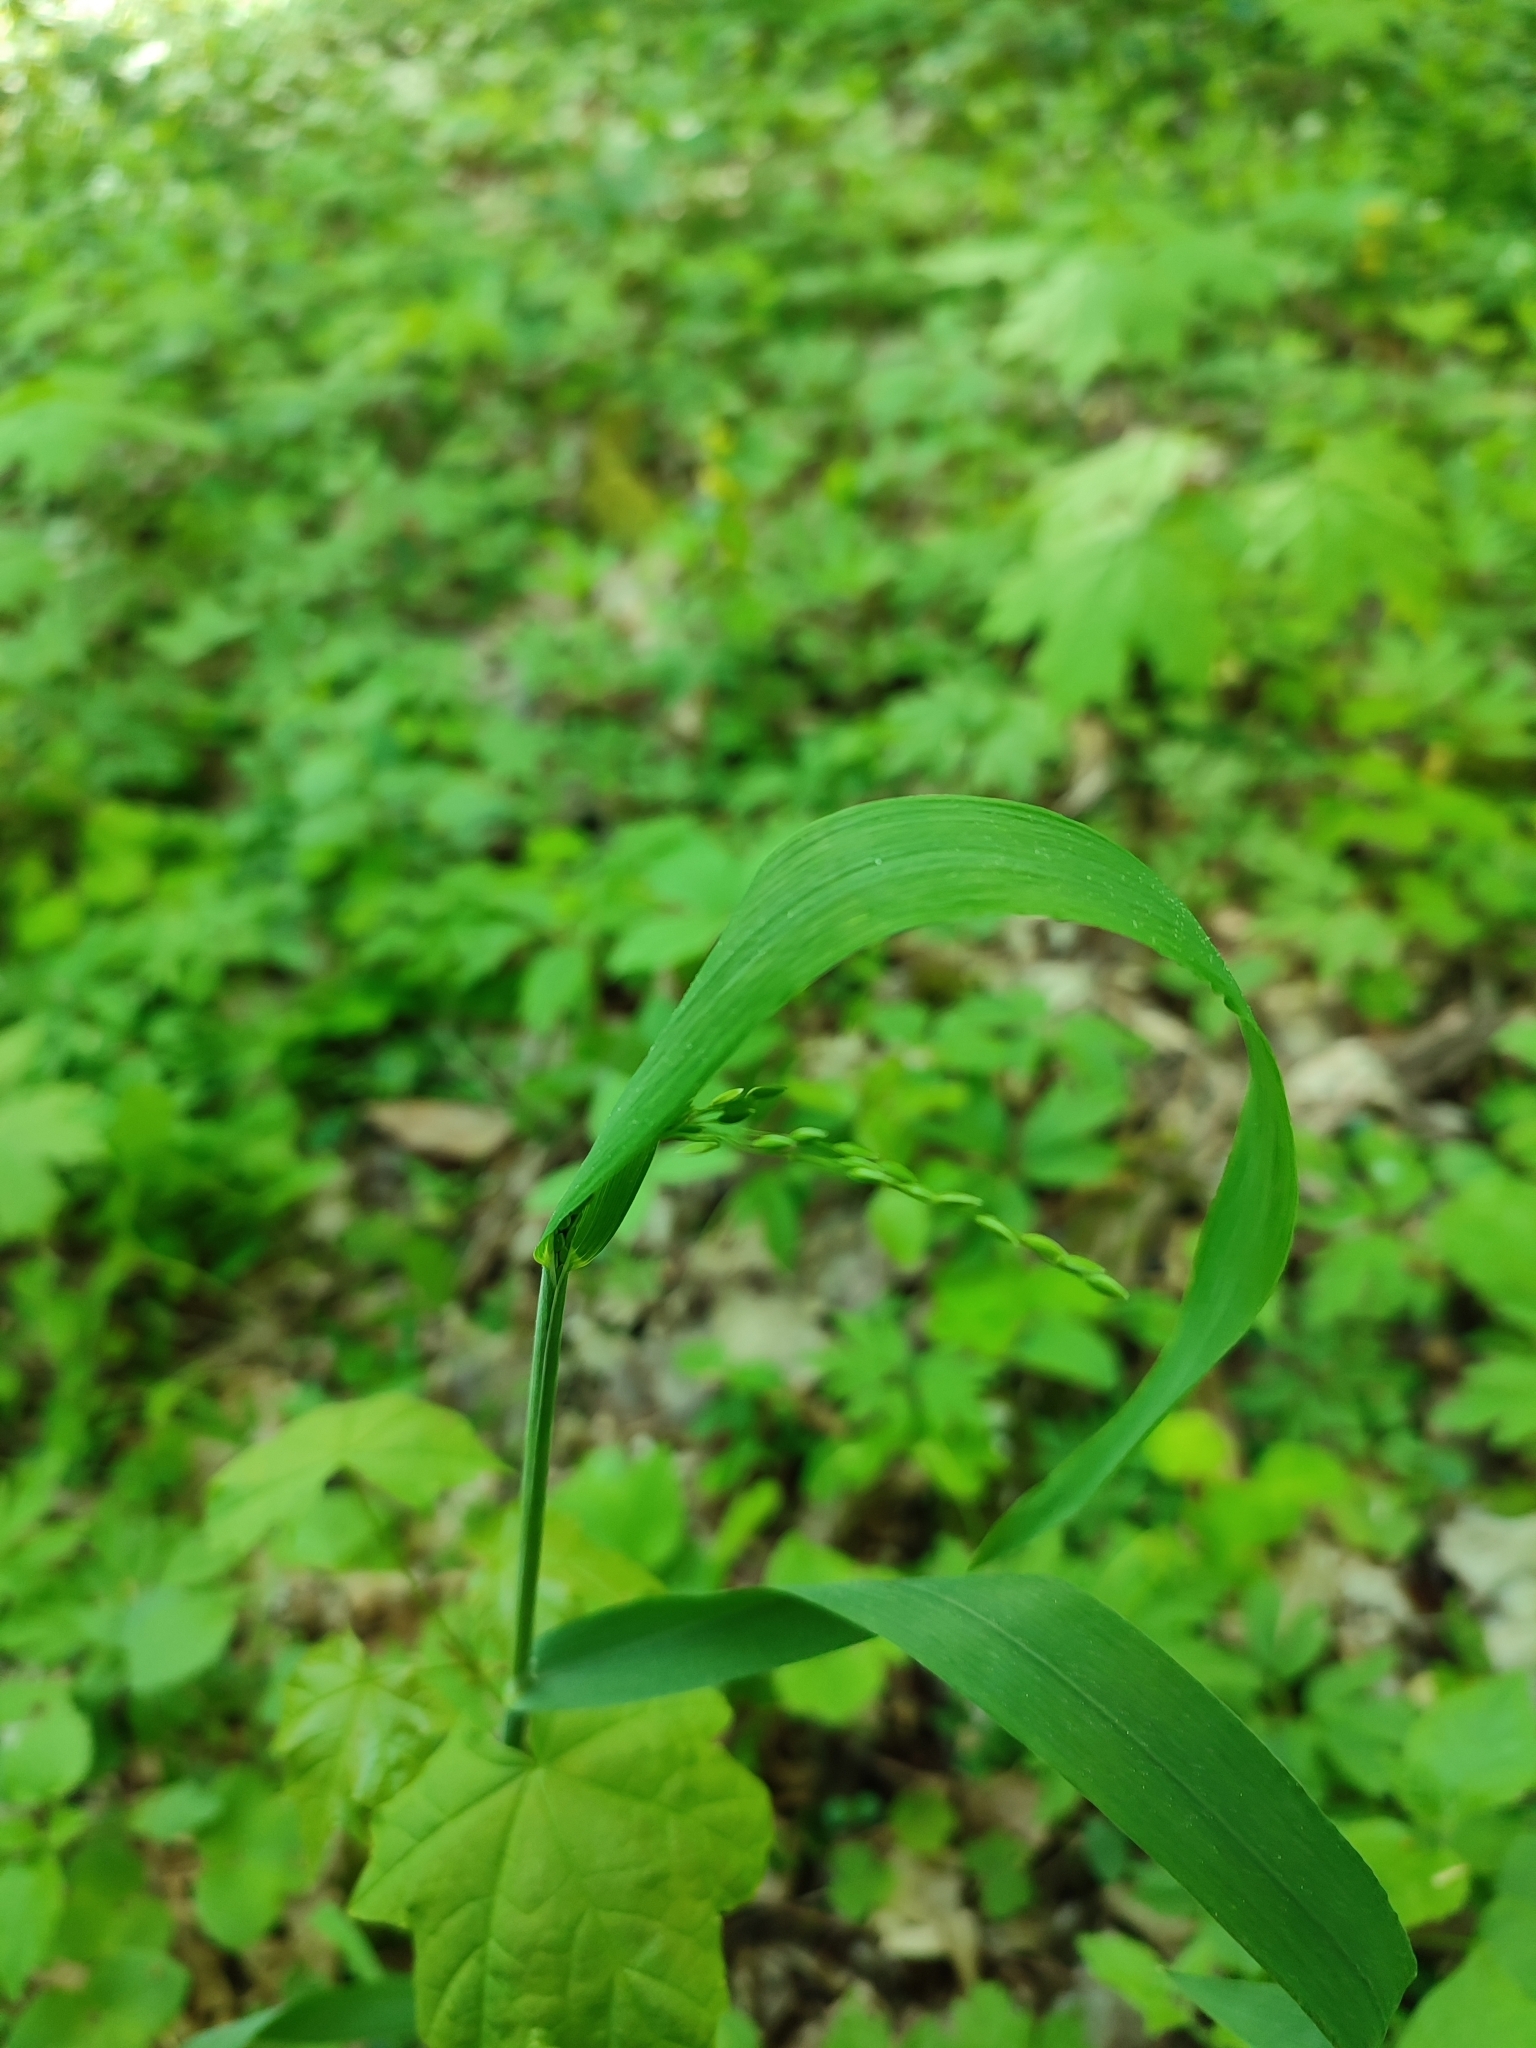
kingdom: Plantae
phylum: Tracheophyta
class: Liliopsida
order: Poales
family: Poaceae
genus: Milium
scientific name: Milium effusum
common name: Wood millet
